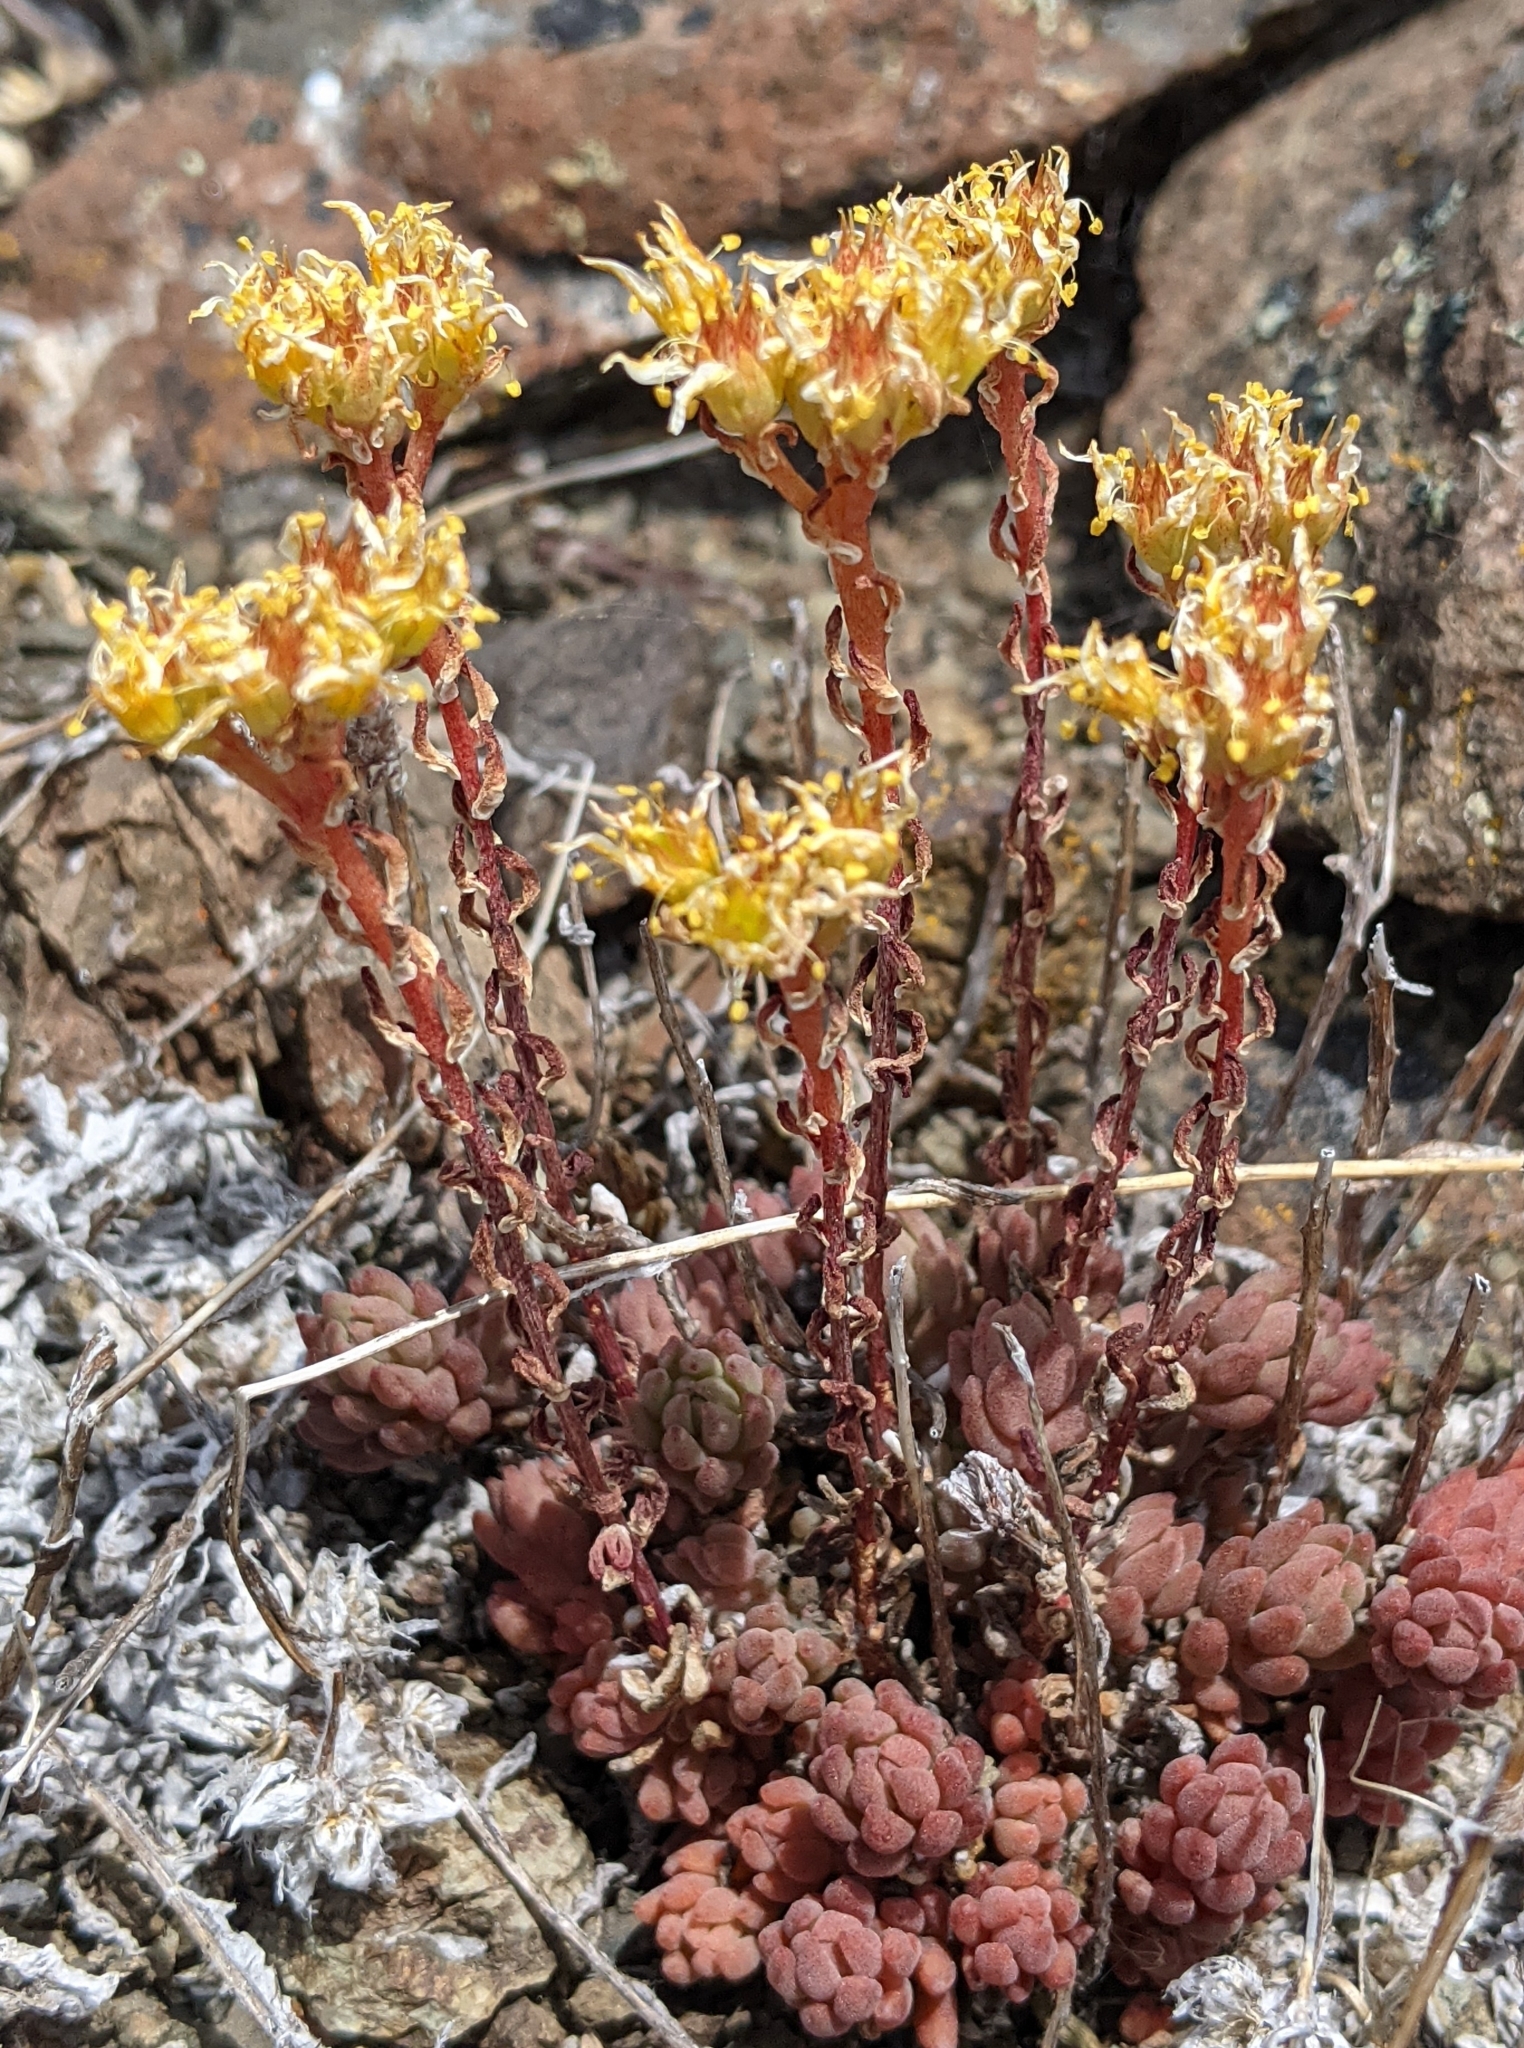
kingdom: Plantae
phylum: Tracheophyta
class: Magnoliopsida
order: Saxifragales
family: Crassulaceae
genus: Sedum
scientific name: Sedum lanceolatum
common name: Common stonecrop
